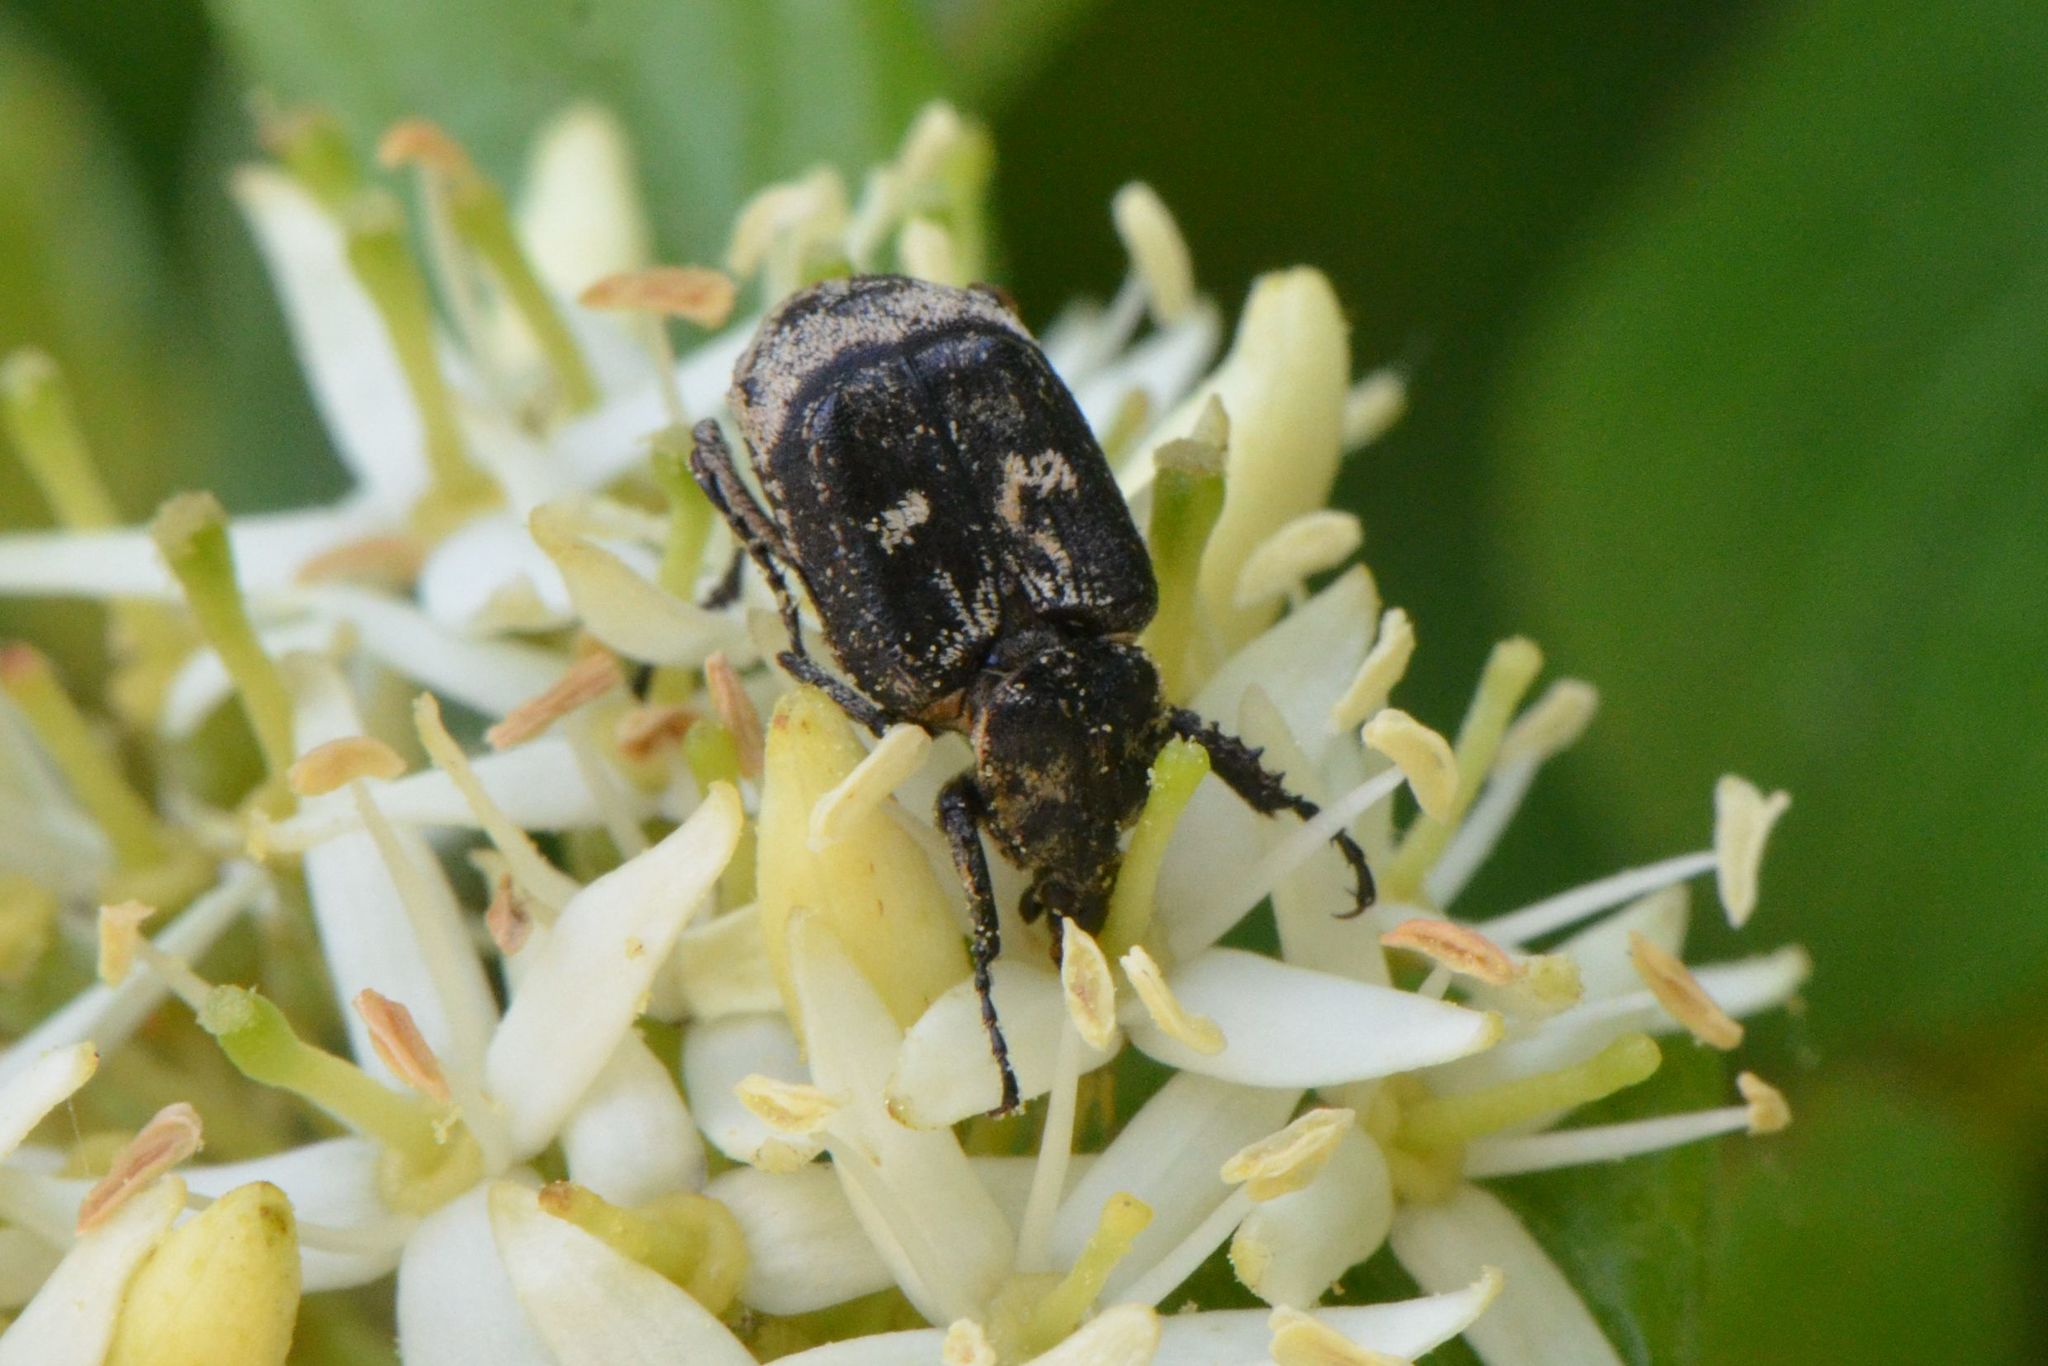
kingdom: Animalia
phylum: Arthropoda
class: Insecta
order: Coleoptera
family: Scarabaeidae
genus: Valgus
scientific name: Valgus hemipterus
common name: Bug flower chafer
